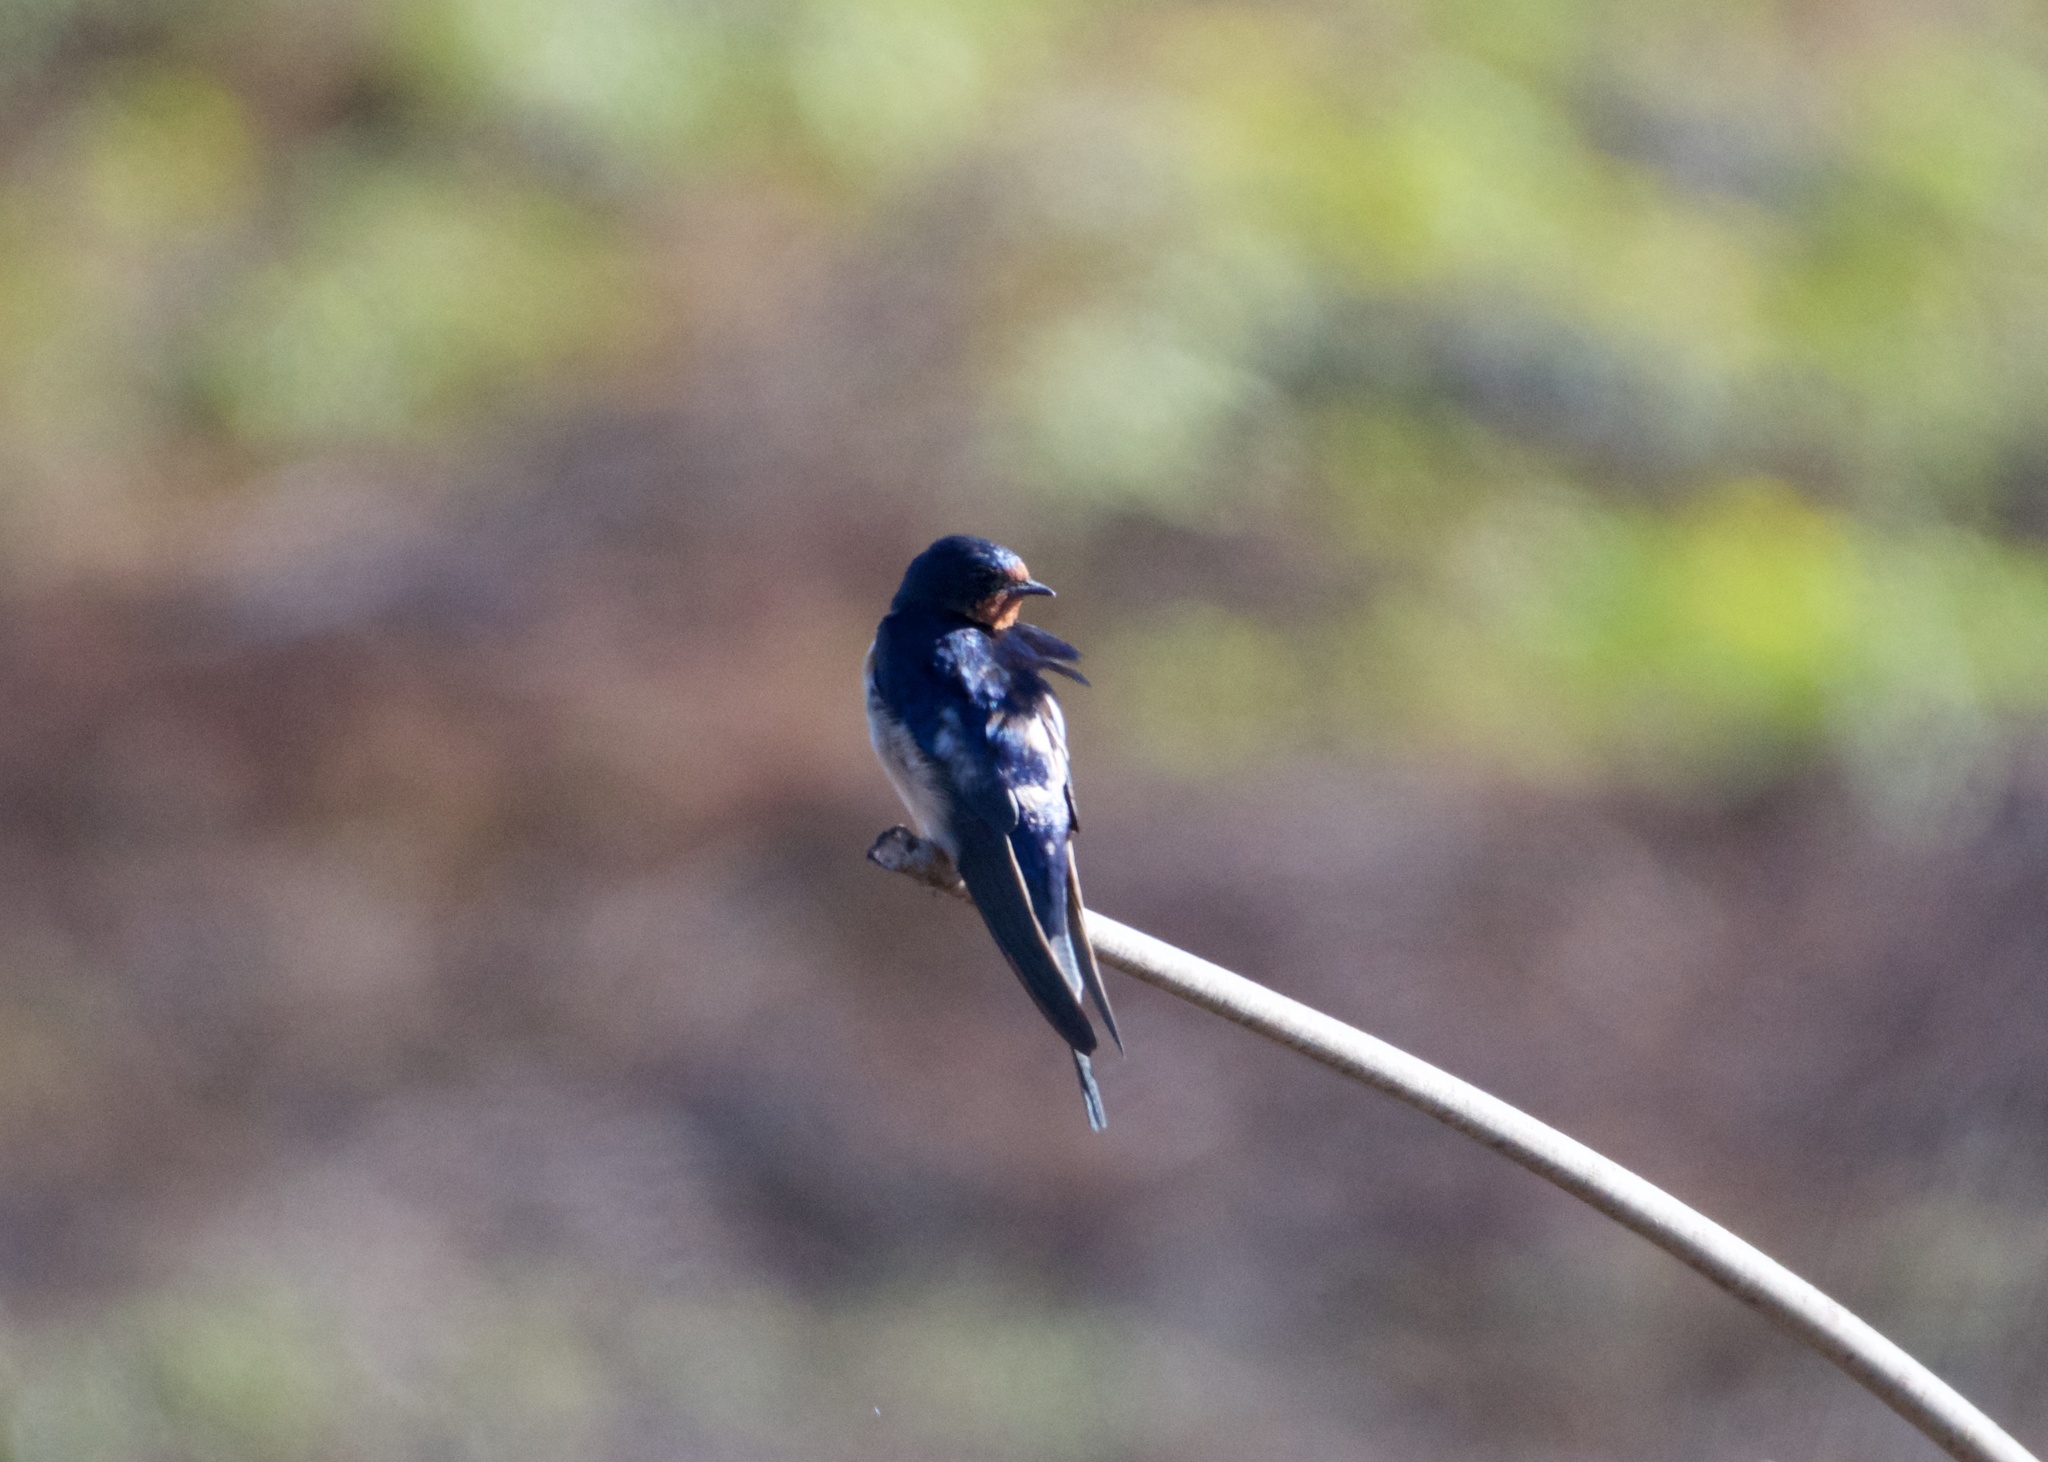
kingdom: Animalia
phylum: Chordata
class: Aves
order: Passeriformes
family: Hirundinidae
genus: Hirundo
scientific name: Hirundo rustica
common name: Barn swallow
